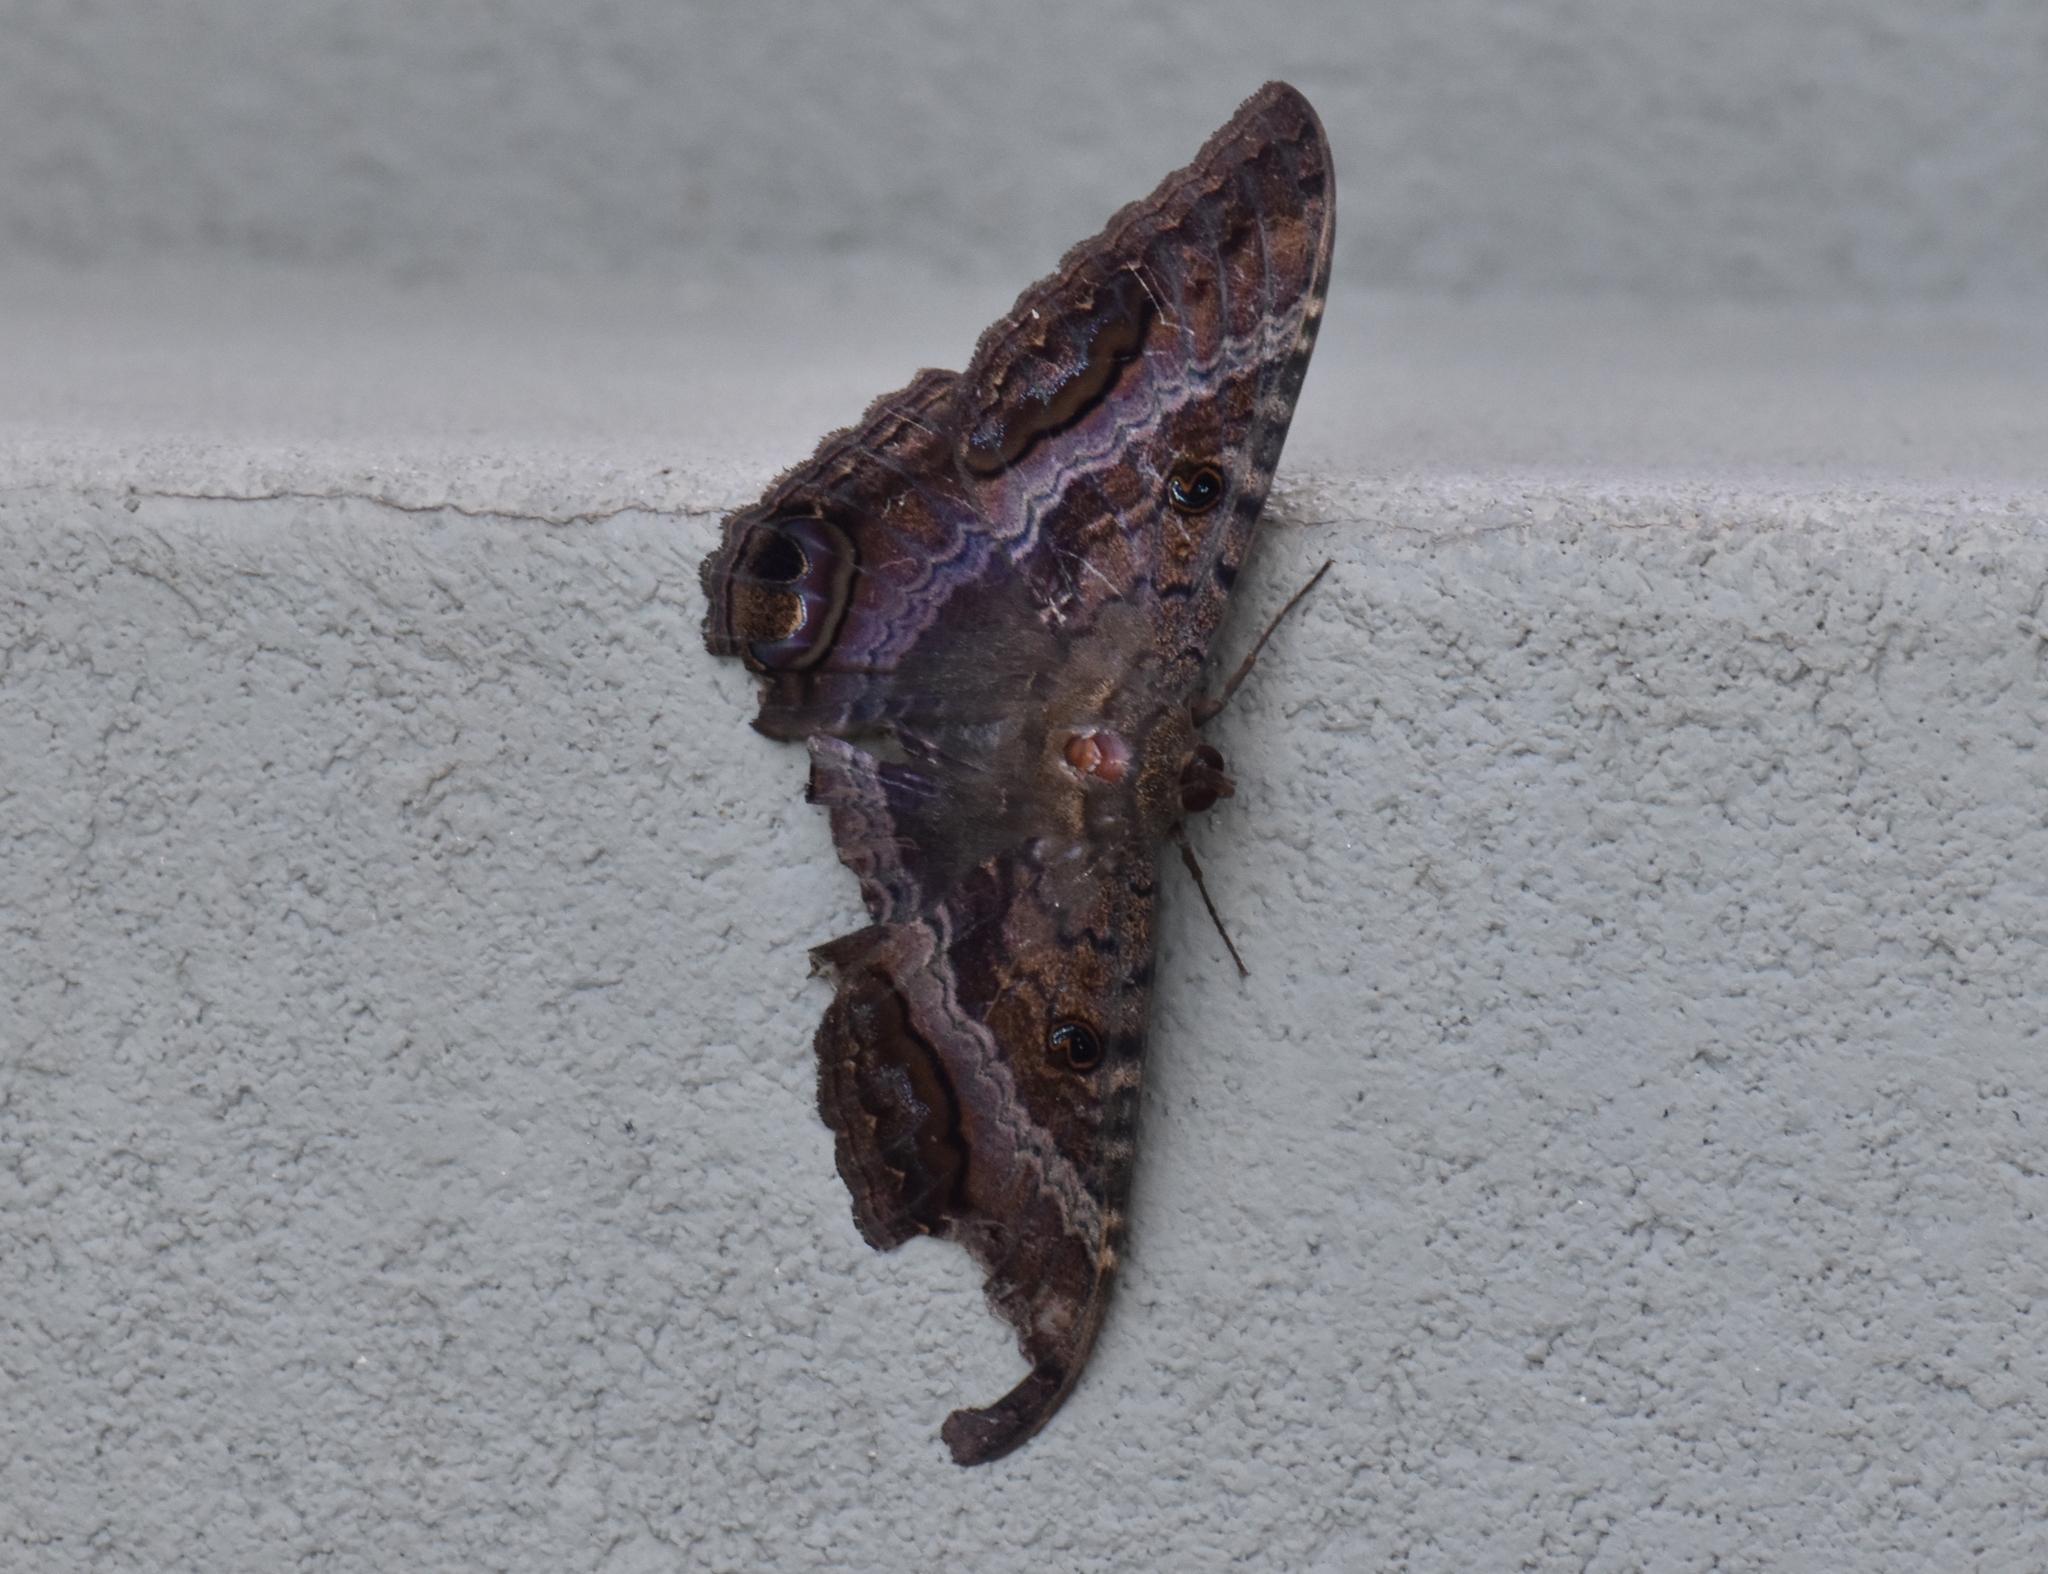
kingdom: Animalia
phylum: Arthropoda
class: Insecta
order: Lepidoptera
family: Erebidae
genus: Ascalapha
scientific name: Ascalapha odorata
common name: Black witch
